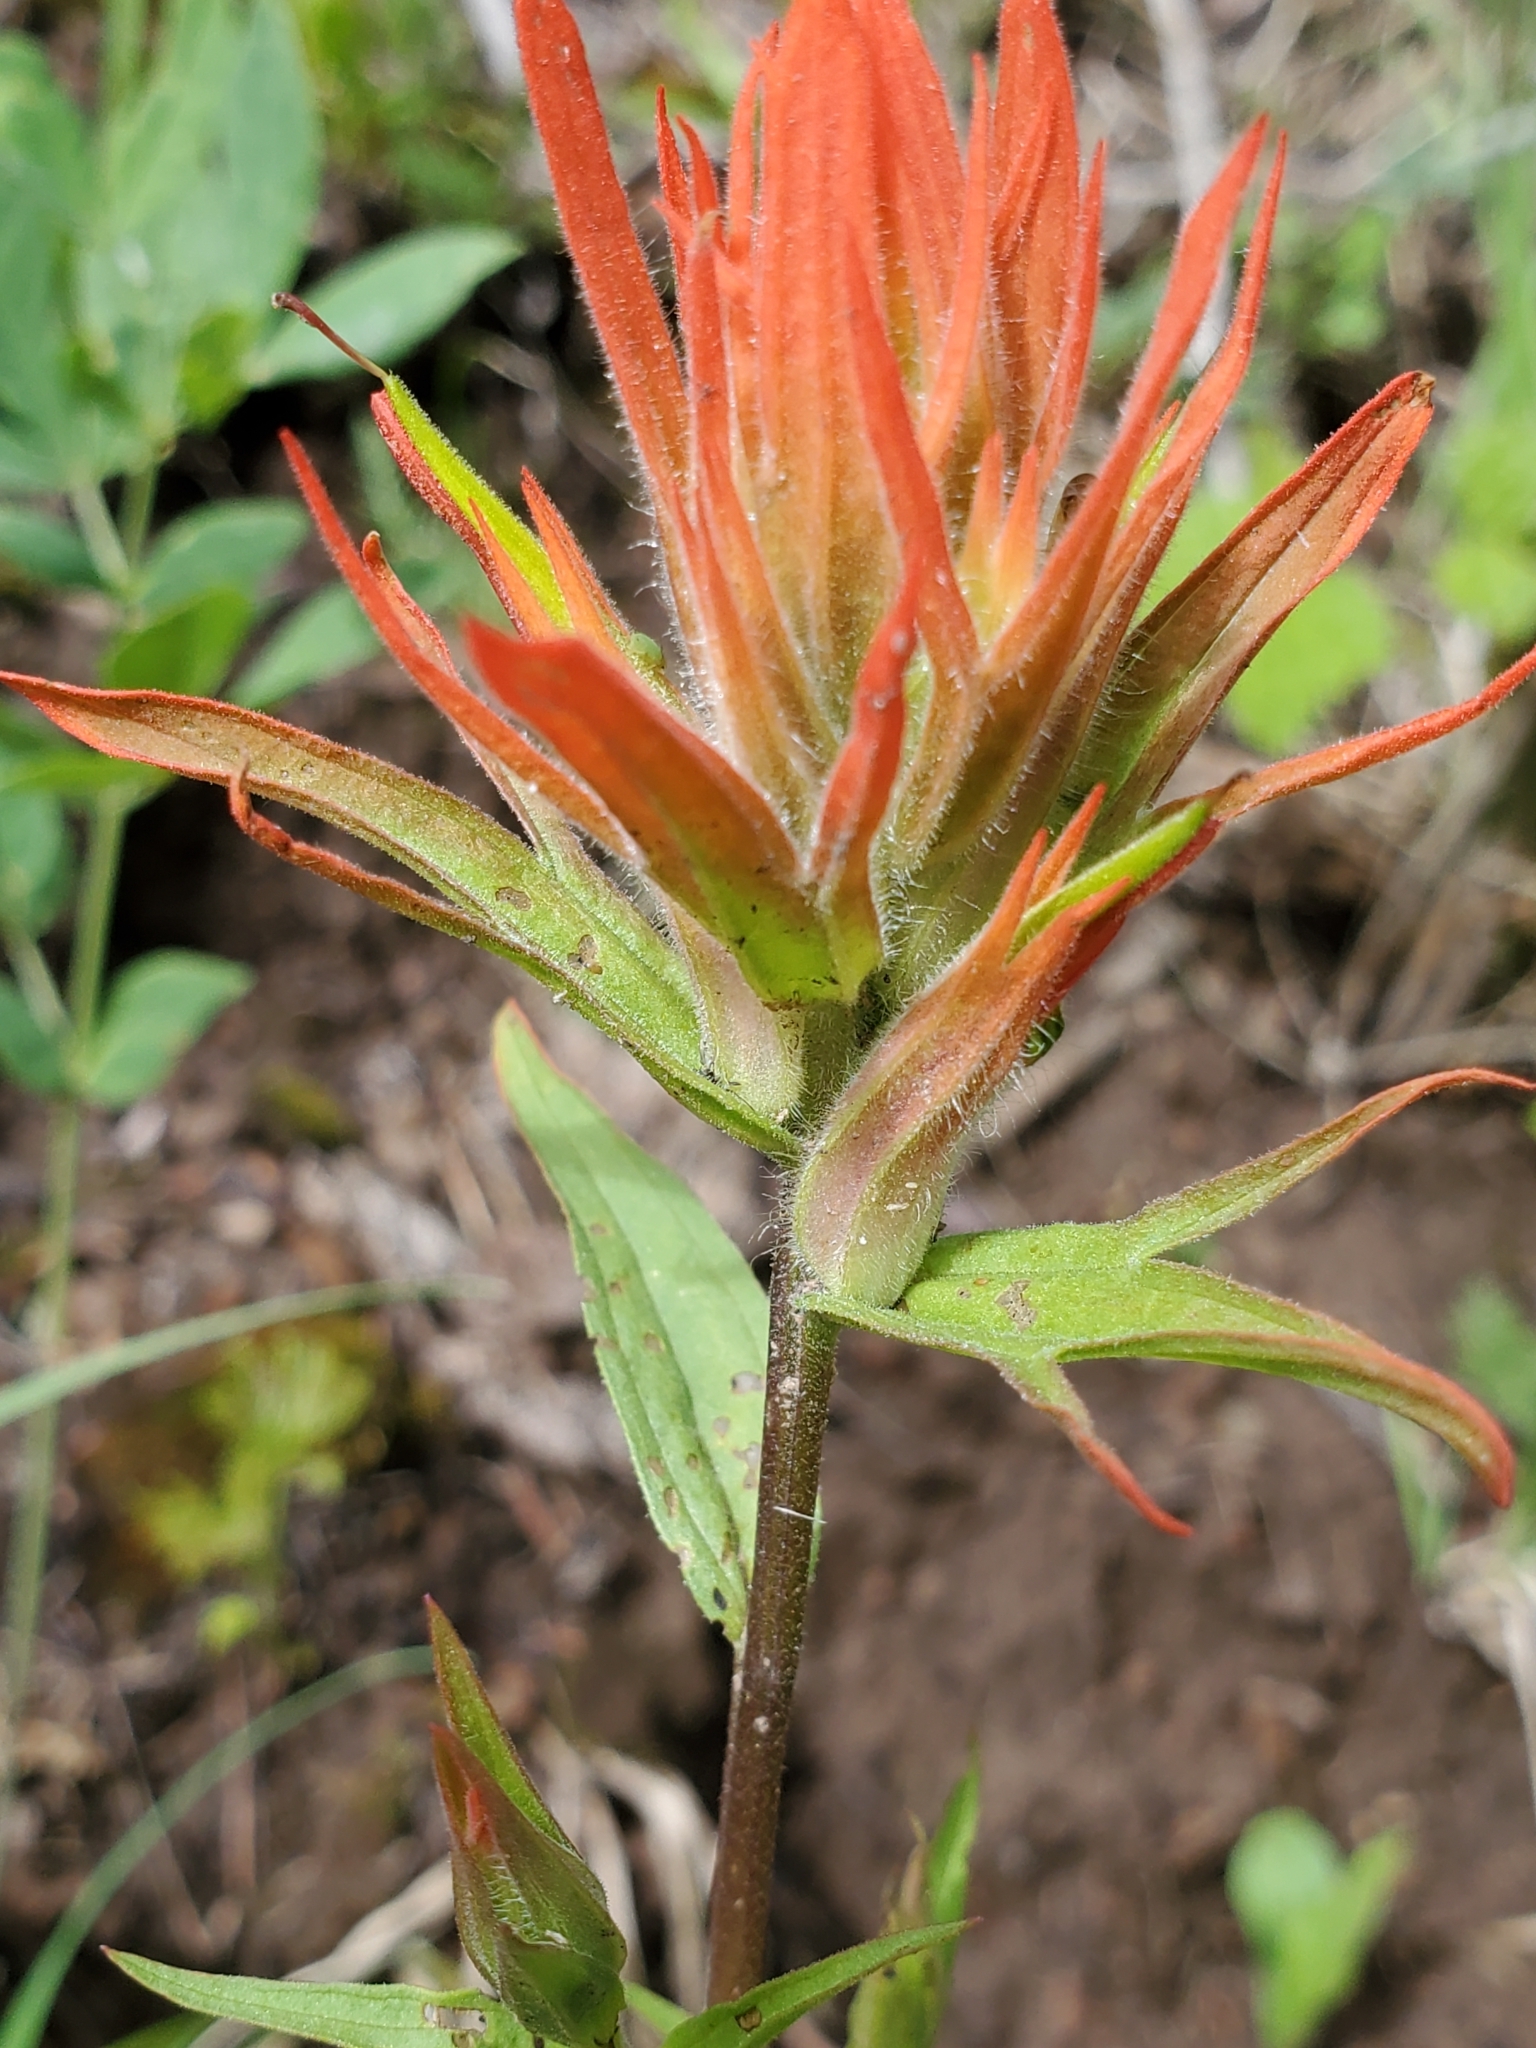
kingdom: Plantae
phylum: Tracheophyta
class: Magnoliopsida
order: Lamiales
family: Orobanchaceae
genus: Castilleja
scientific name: Castilleja miniata
